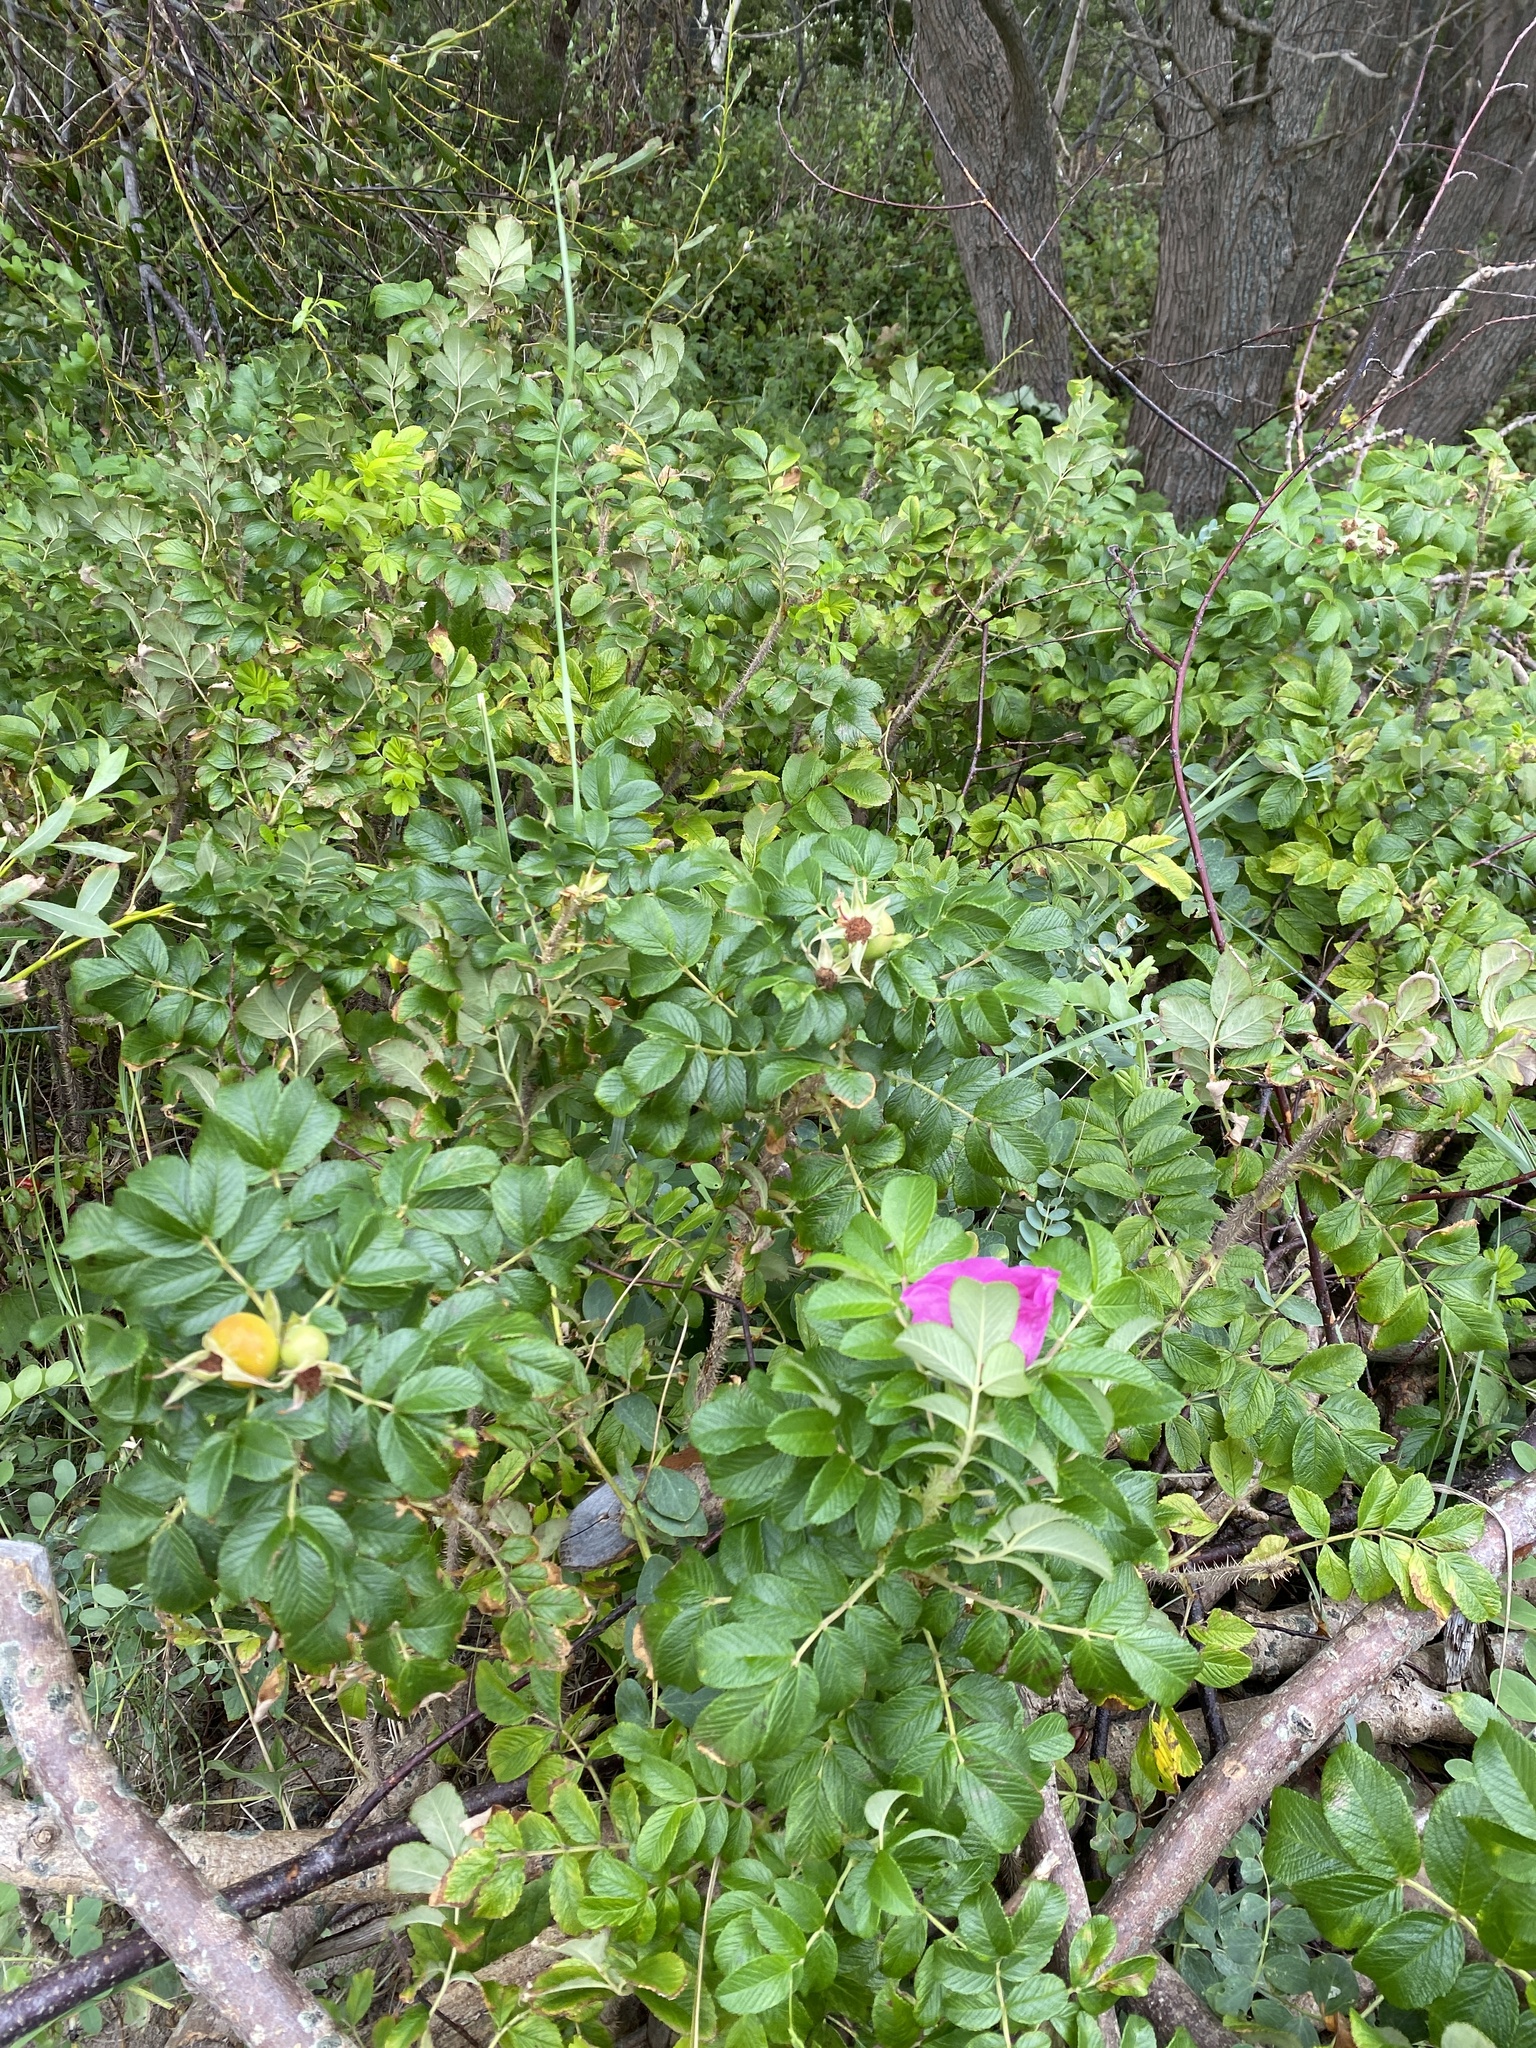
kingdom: Plantae
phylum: Tracheophyta
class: Magnoliopsida
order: Rosales
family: Rosaceae
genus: Rosa
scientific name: Rosa rugosa
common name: Japanese rose
